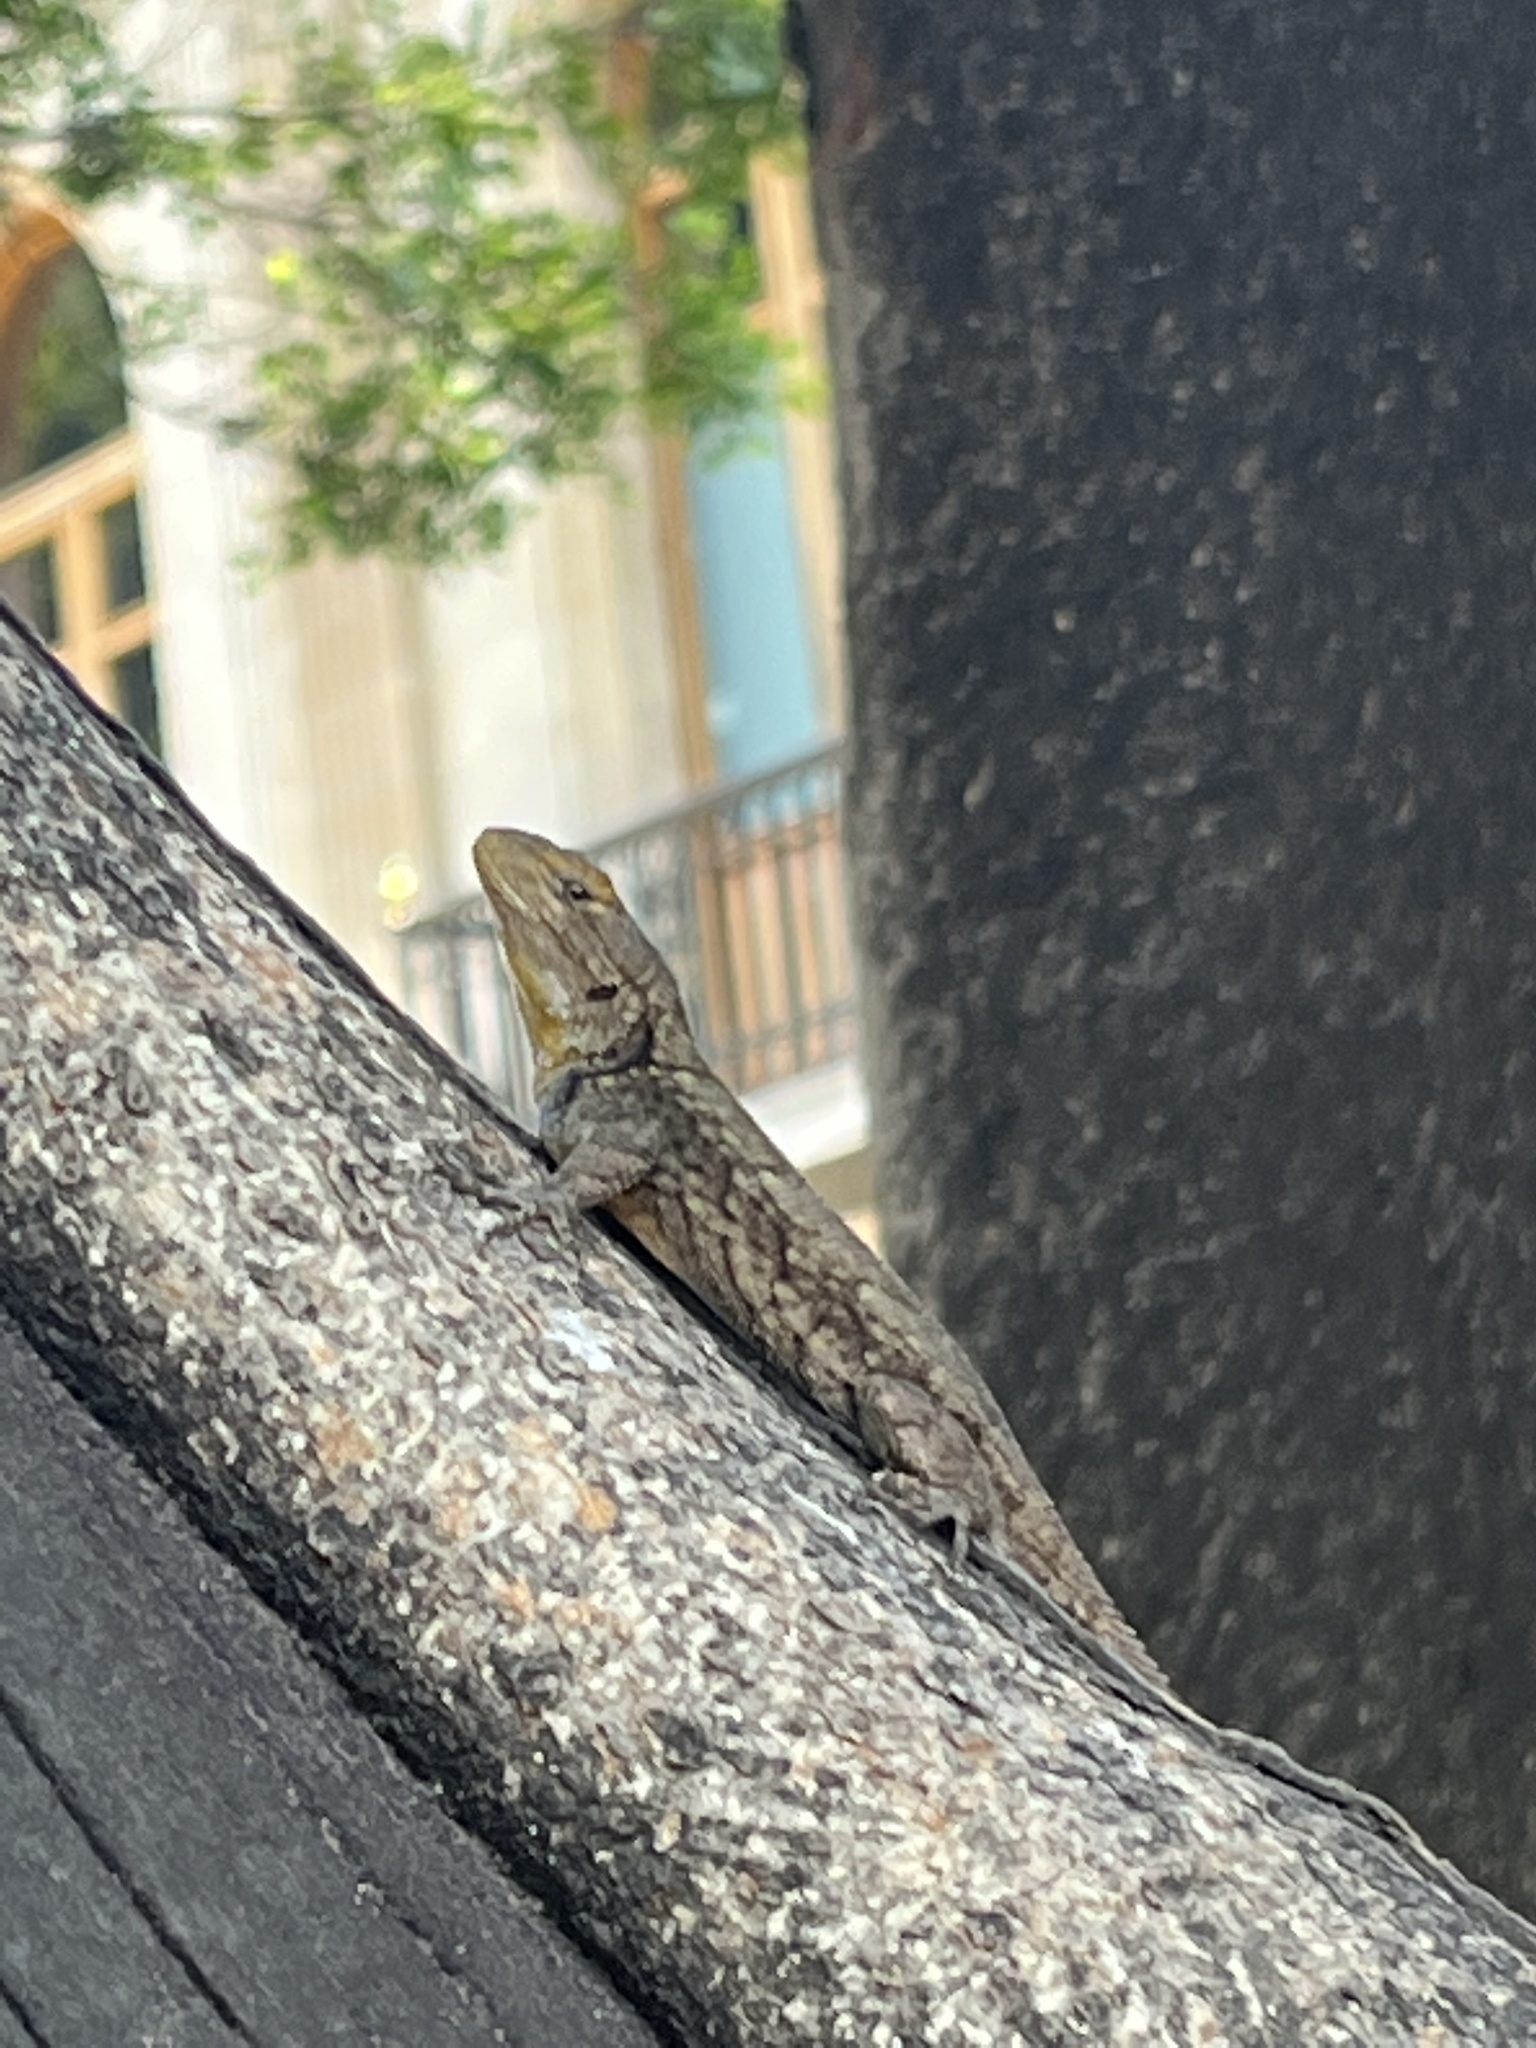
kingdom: Animalia
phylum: Chordata
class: Squamata
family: Phrynosomatidae
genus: Sceloporus
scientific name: Sceloporus grammicus
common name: Mesquite lizard
